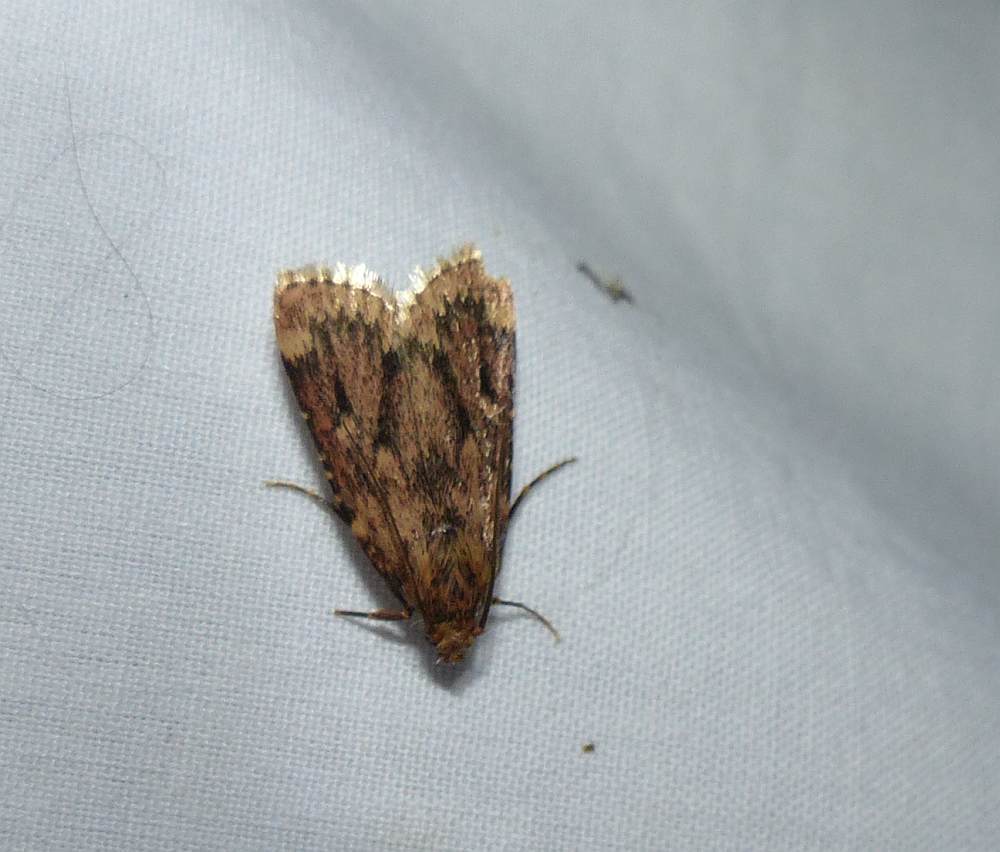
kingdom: Animalia
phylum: Arthropoda
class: Insecta
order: Lepidoptera
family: Pyralidae
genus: Aglossa
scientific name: Aglossa cuprina
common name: Grease moth
